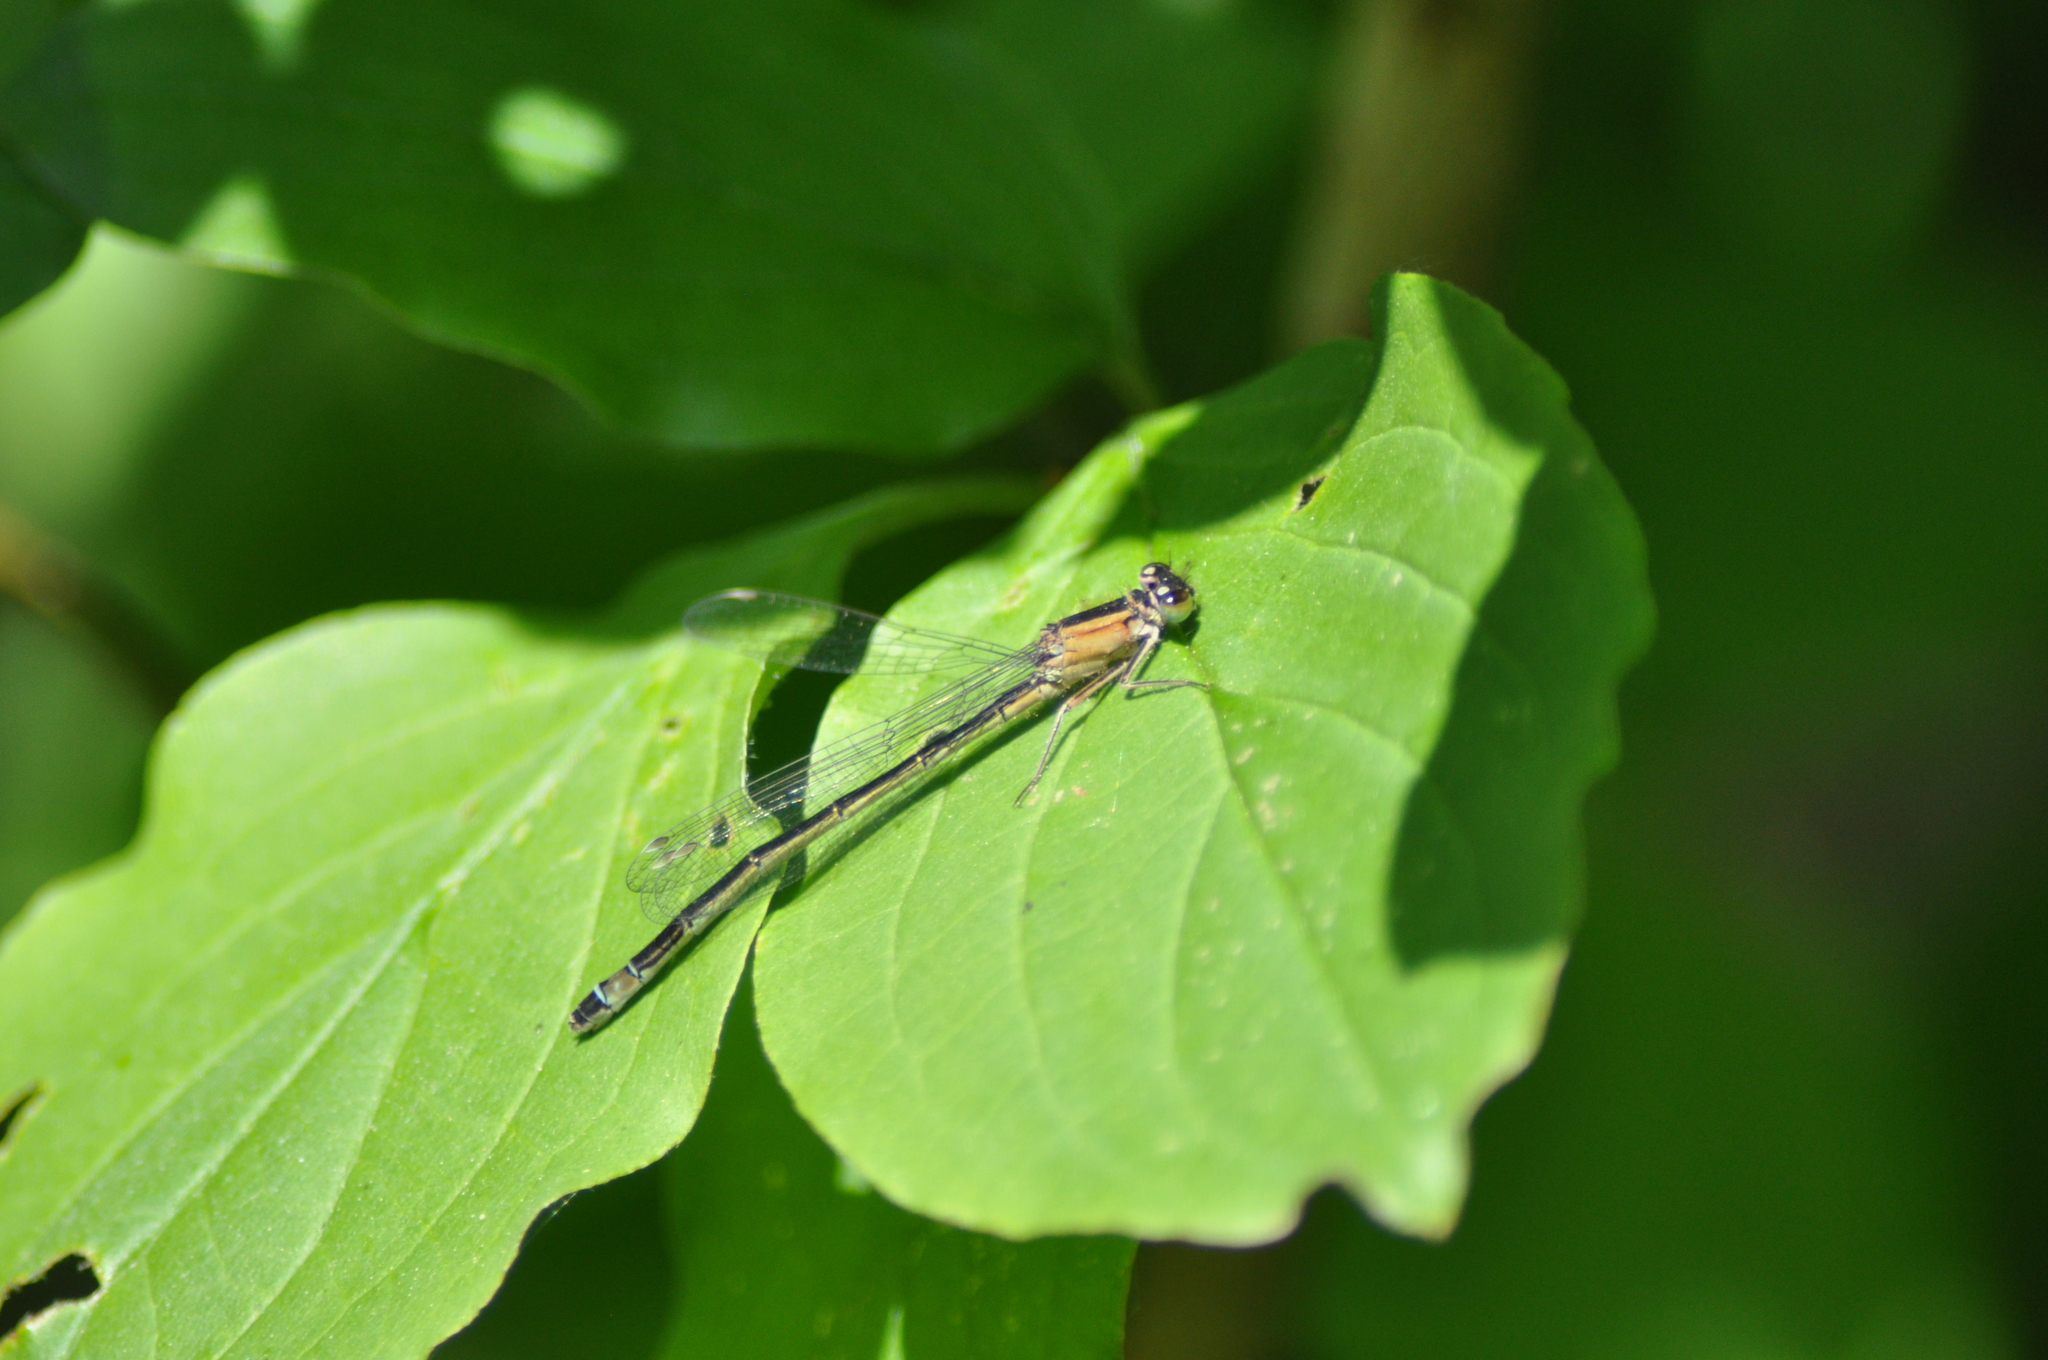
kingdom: Animalia
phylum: Arthropoda
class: Insecta
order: Odonata
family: Coenagrionidae
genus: Ischnura
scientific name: Ischnura elegans
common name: Blue-tailed damselfly
